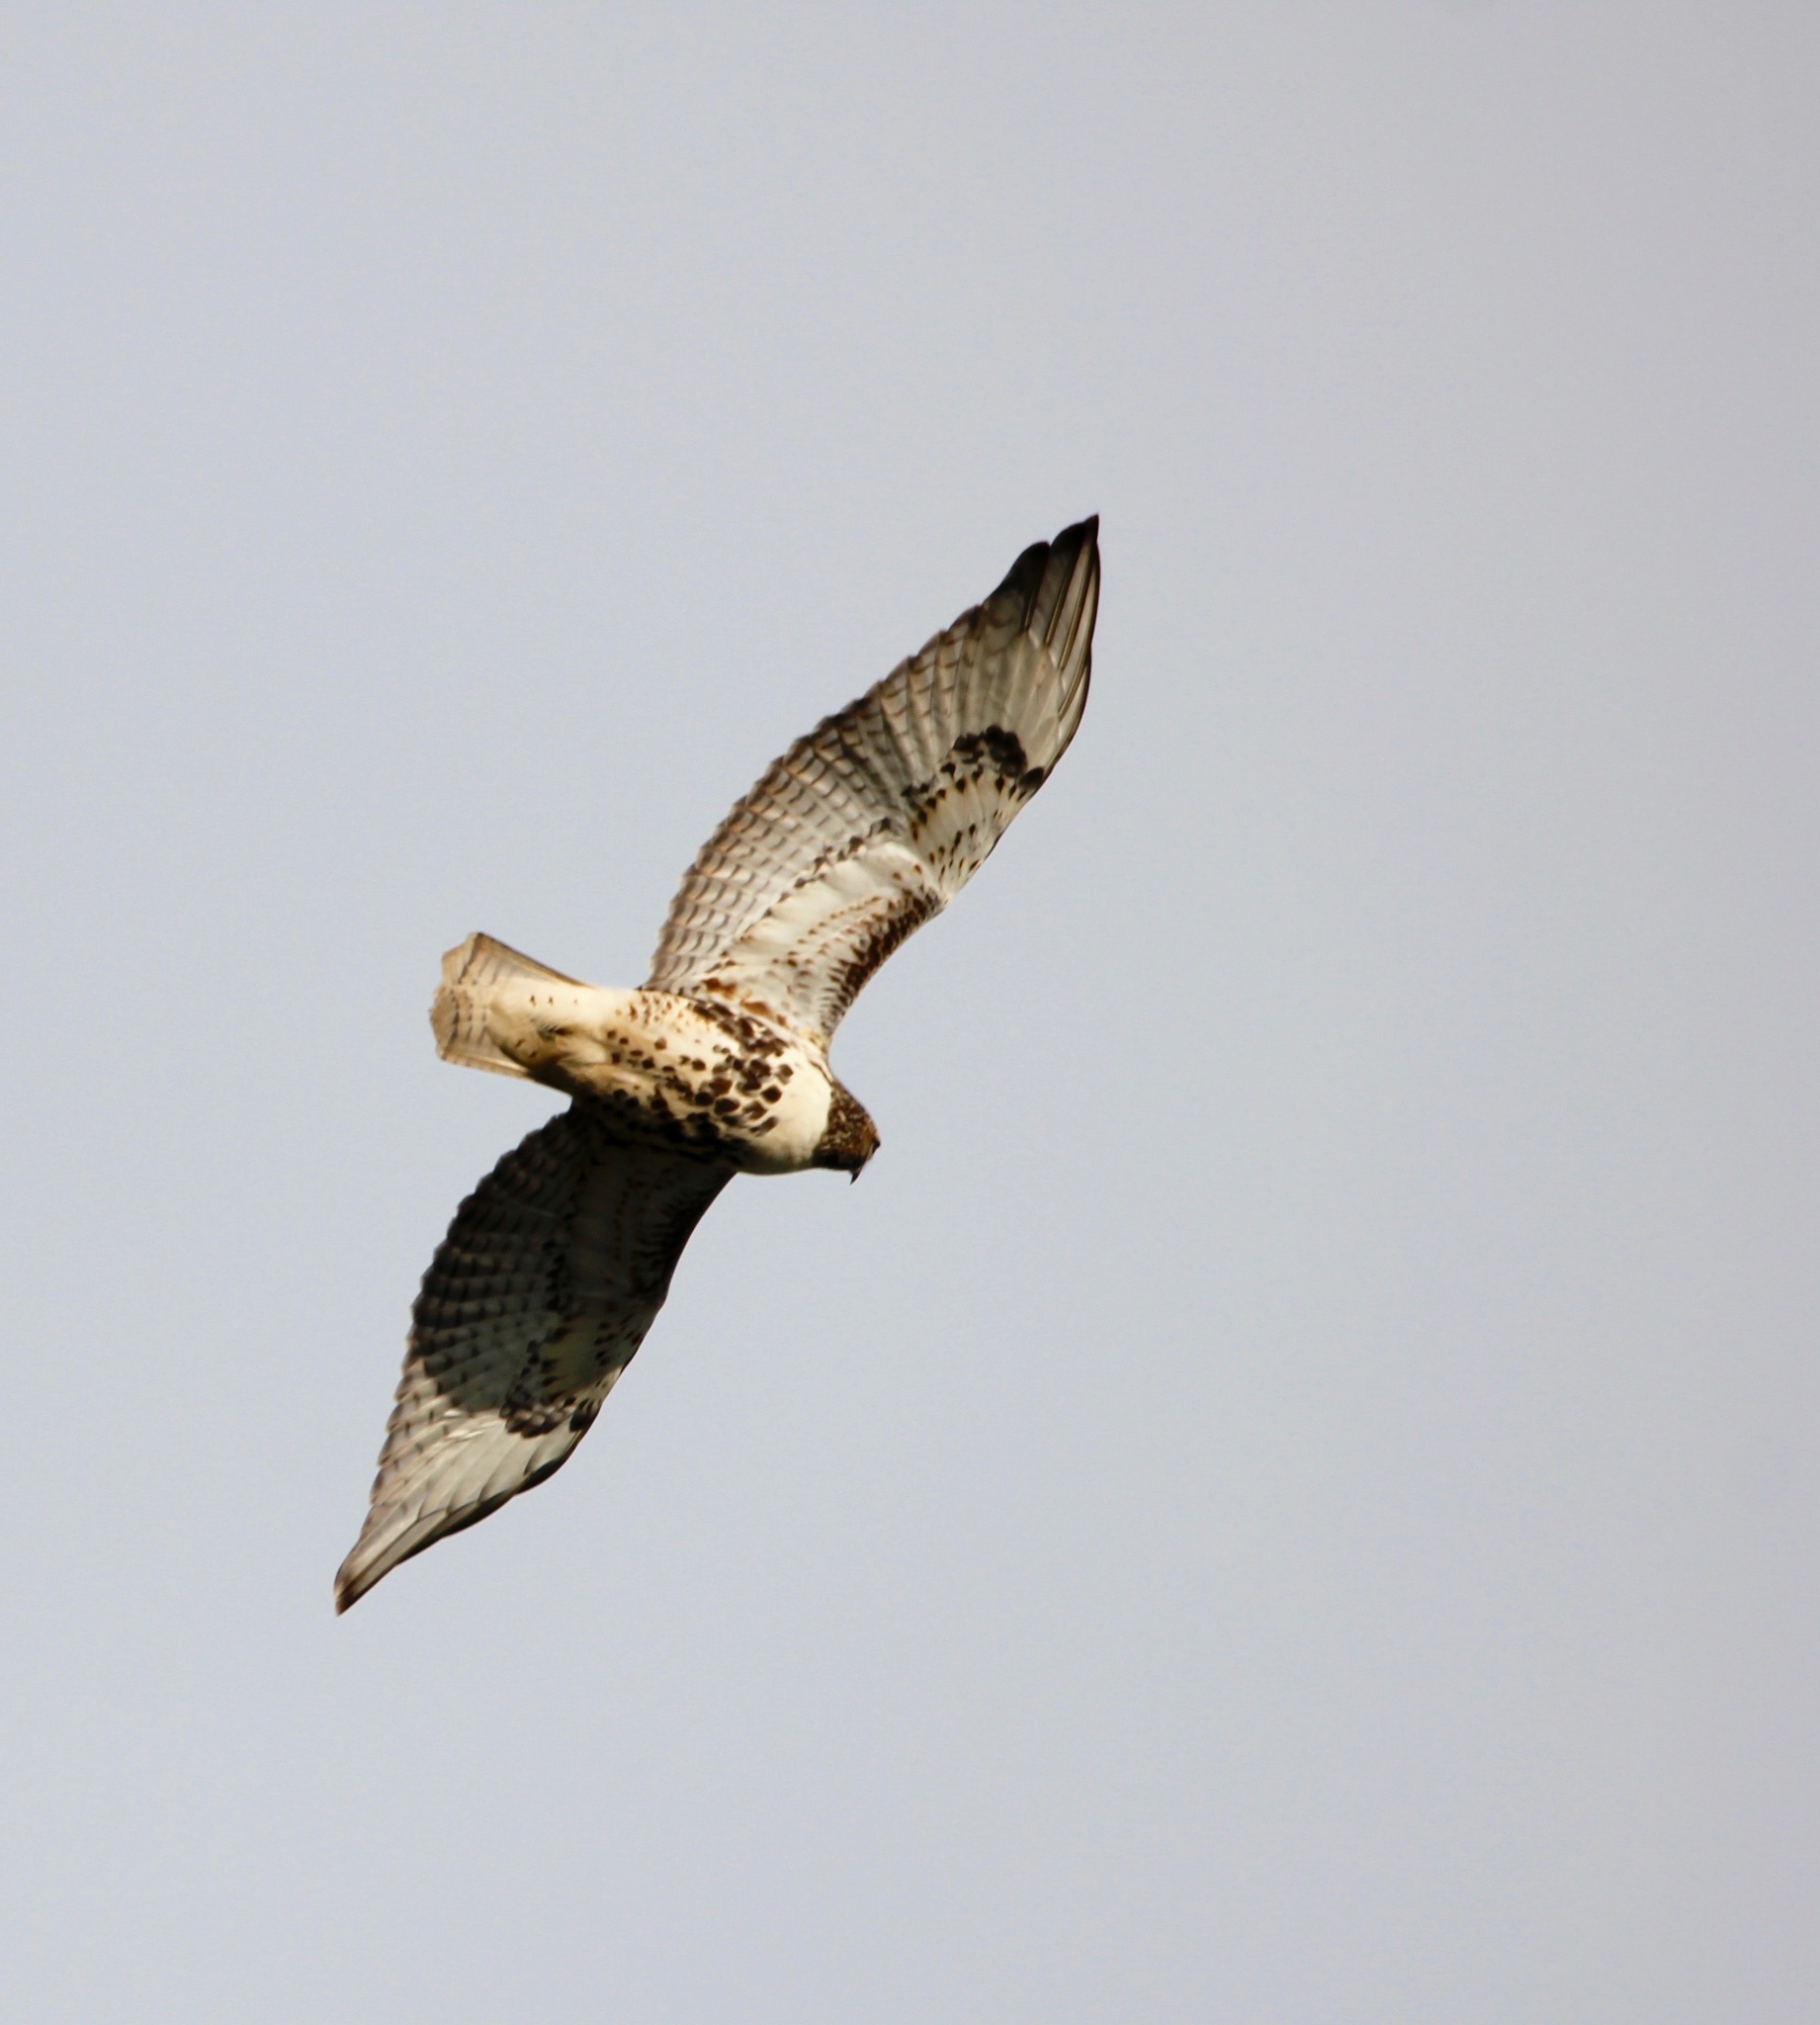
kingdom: Animalia
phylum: Chordata
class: Aves
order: Accipitriformes
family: Accipitridae
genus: Buteo
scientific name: Buteo jamaicensis
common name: Red-tailed hawk
